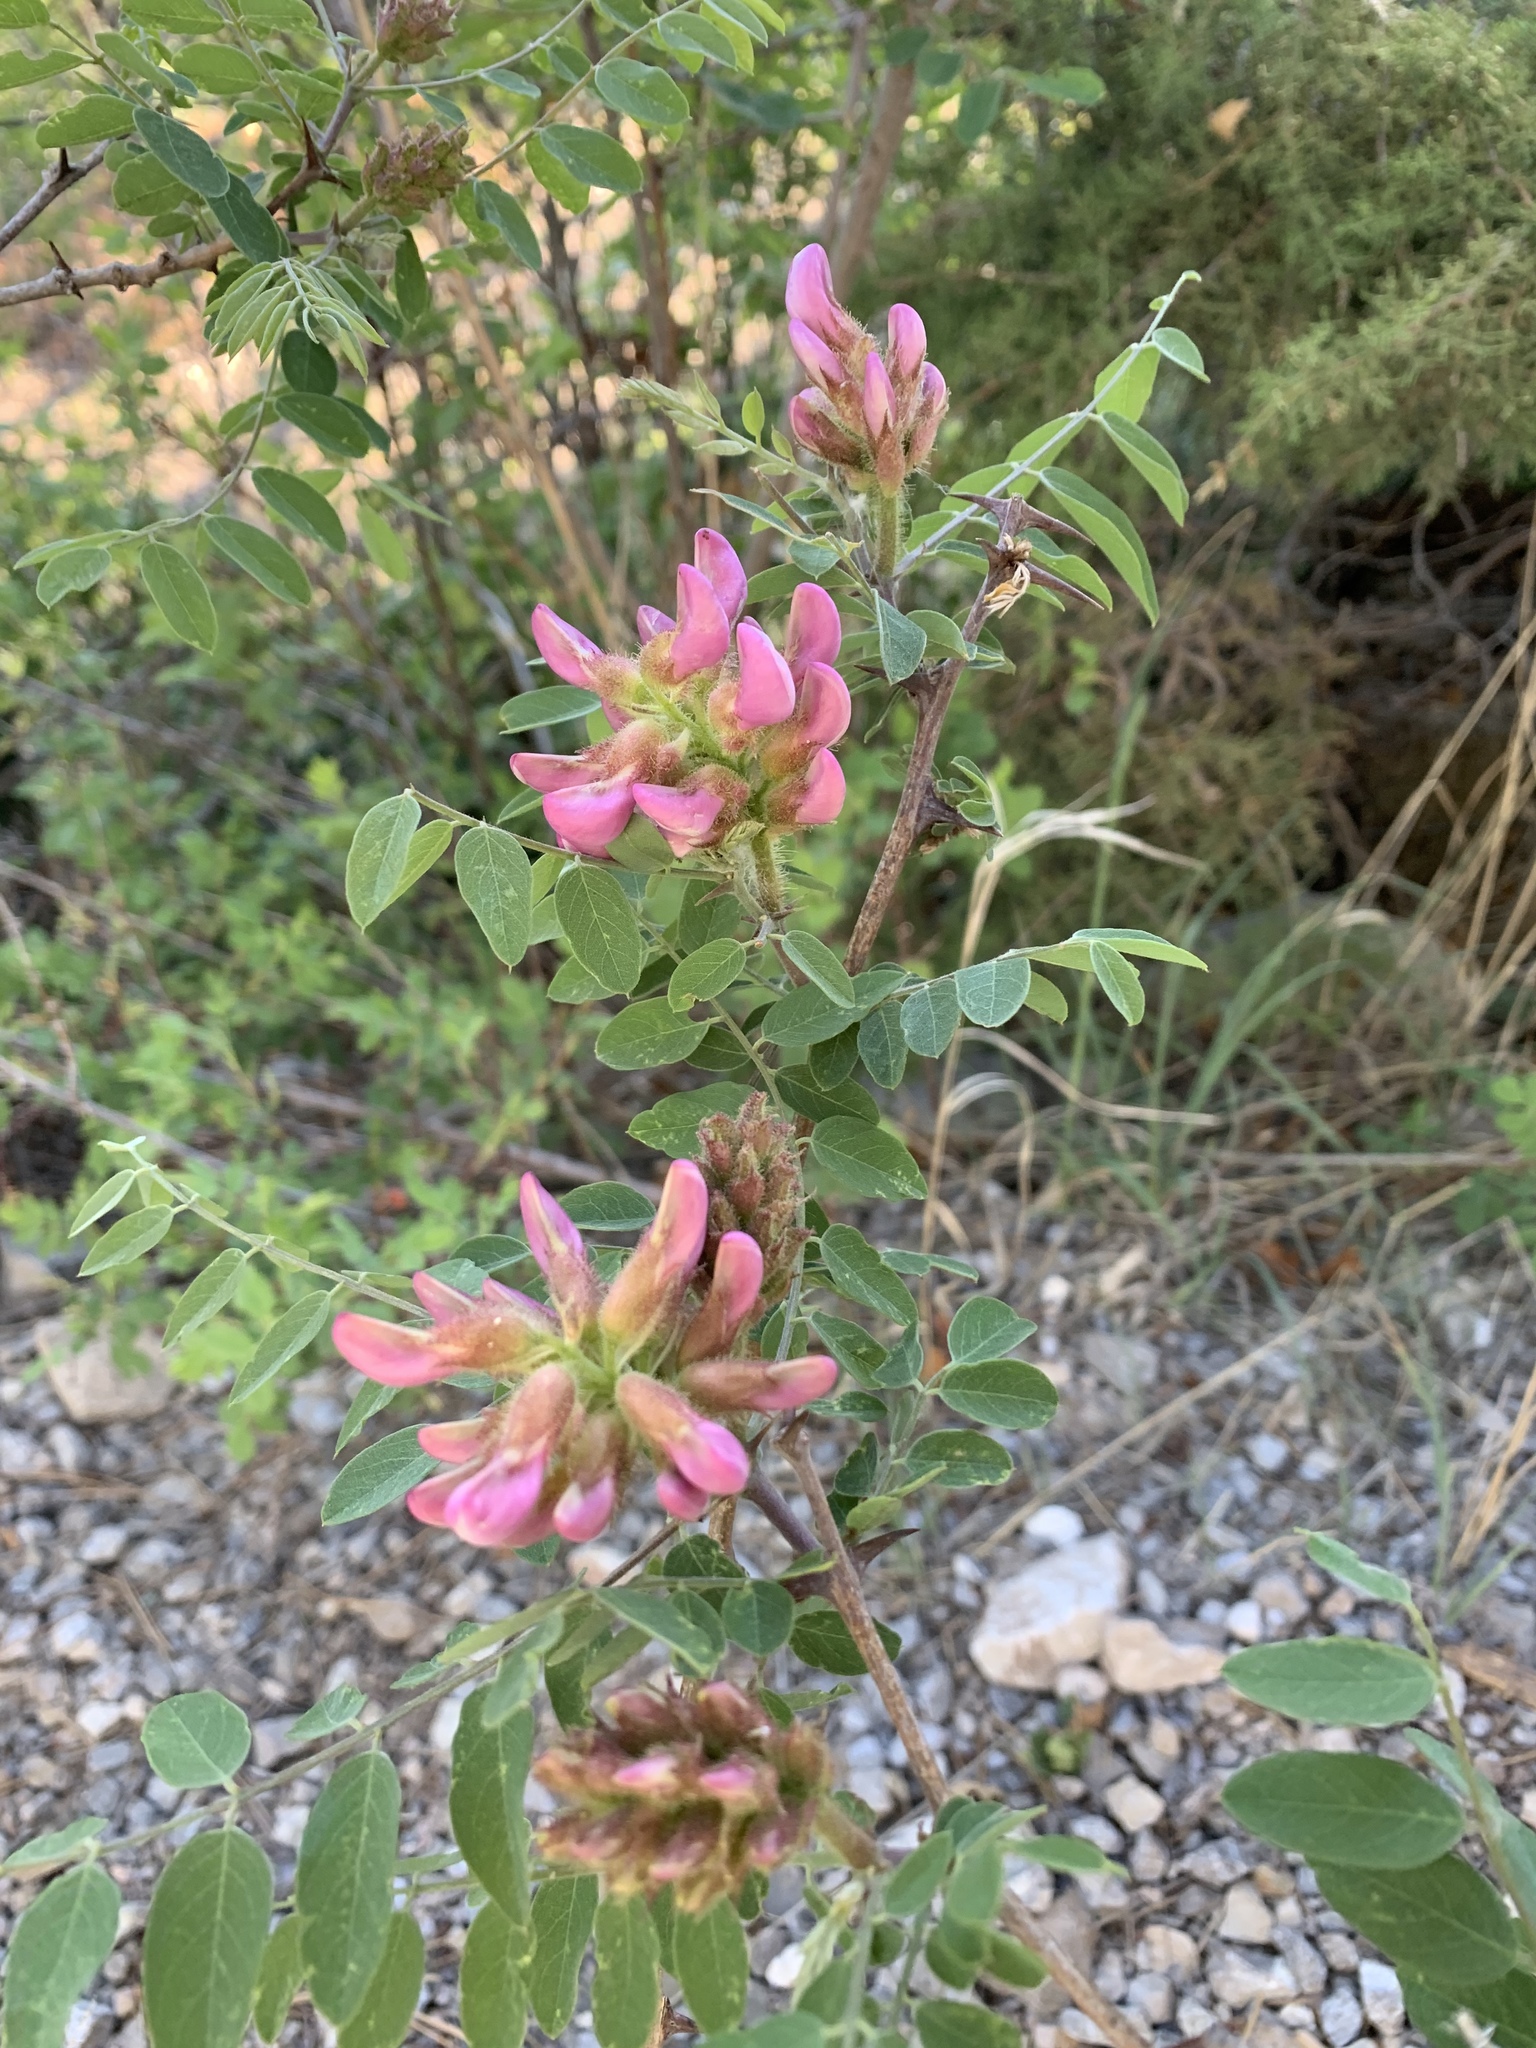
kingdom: Plantae
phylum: Tracheophyta
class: Magnoliopsida
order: Fabales
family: Fabaceae
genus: Robinia
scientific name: Robinia neomexicana
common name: New mexico locust
